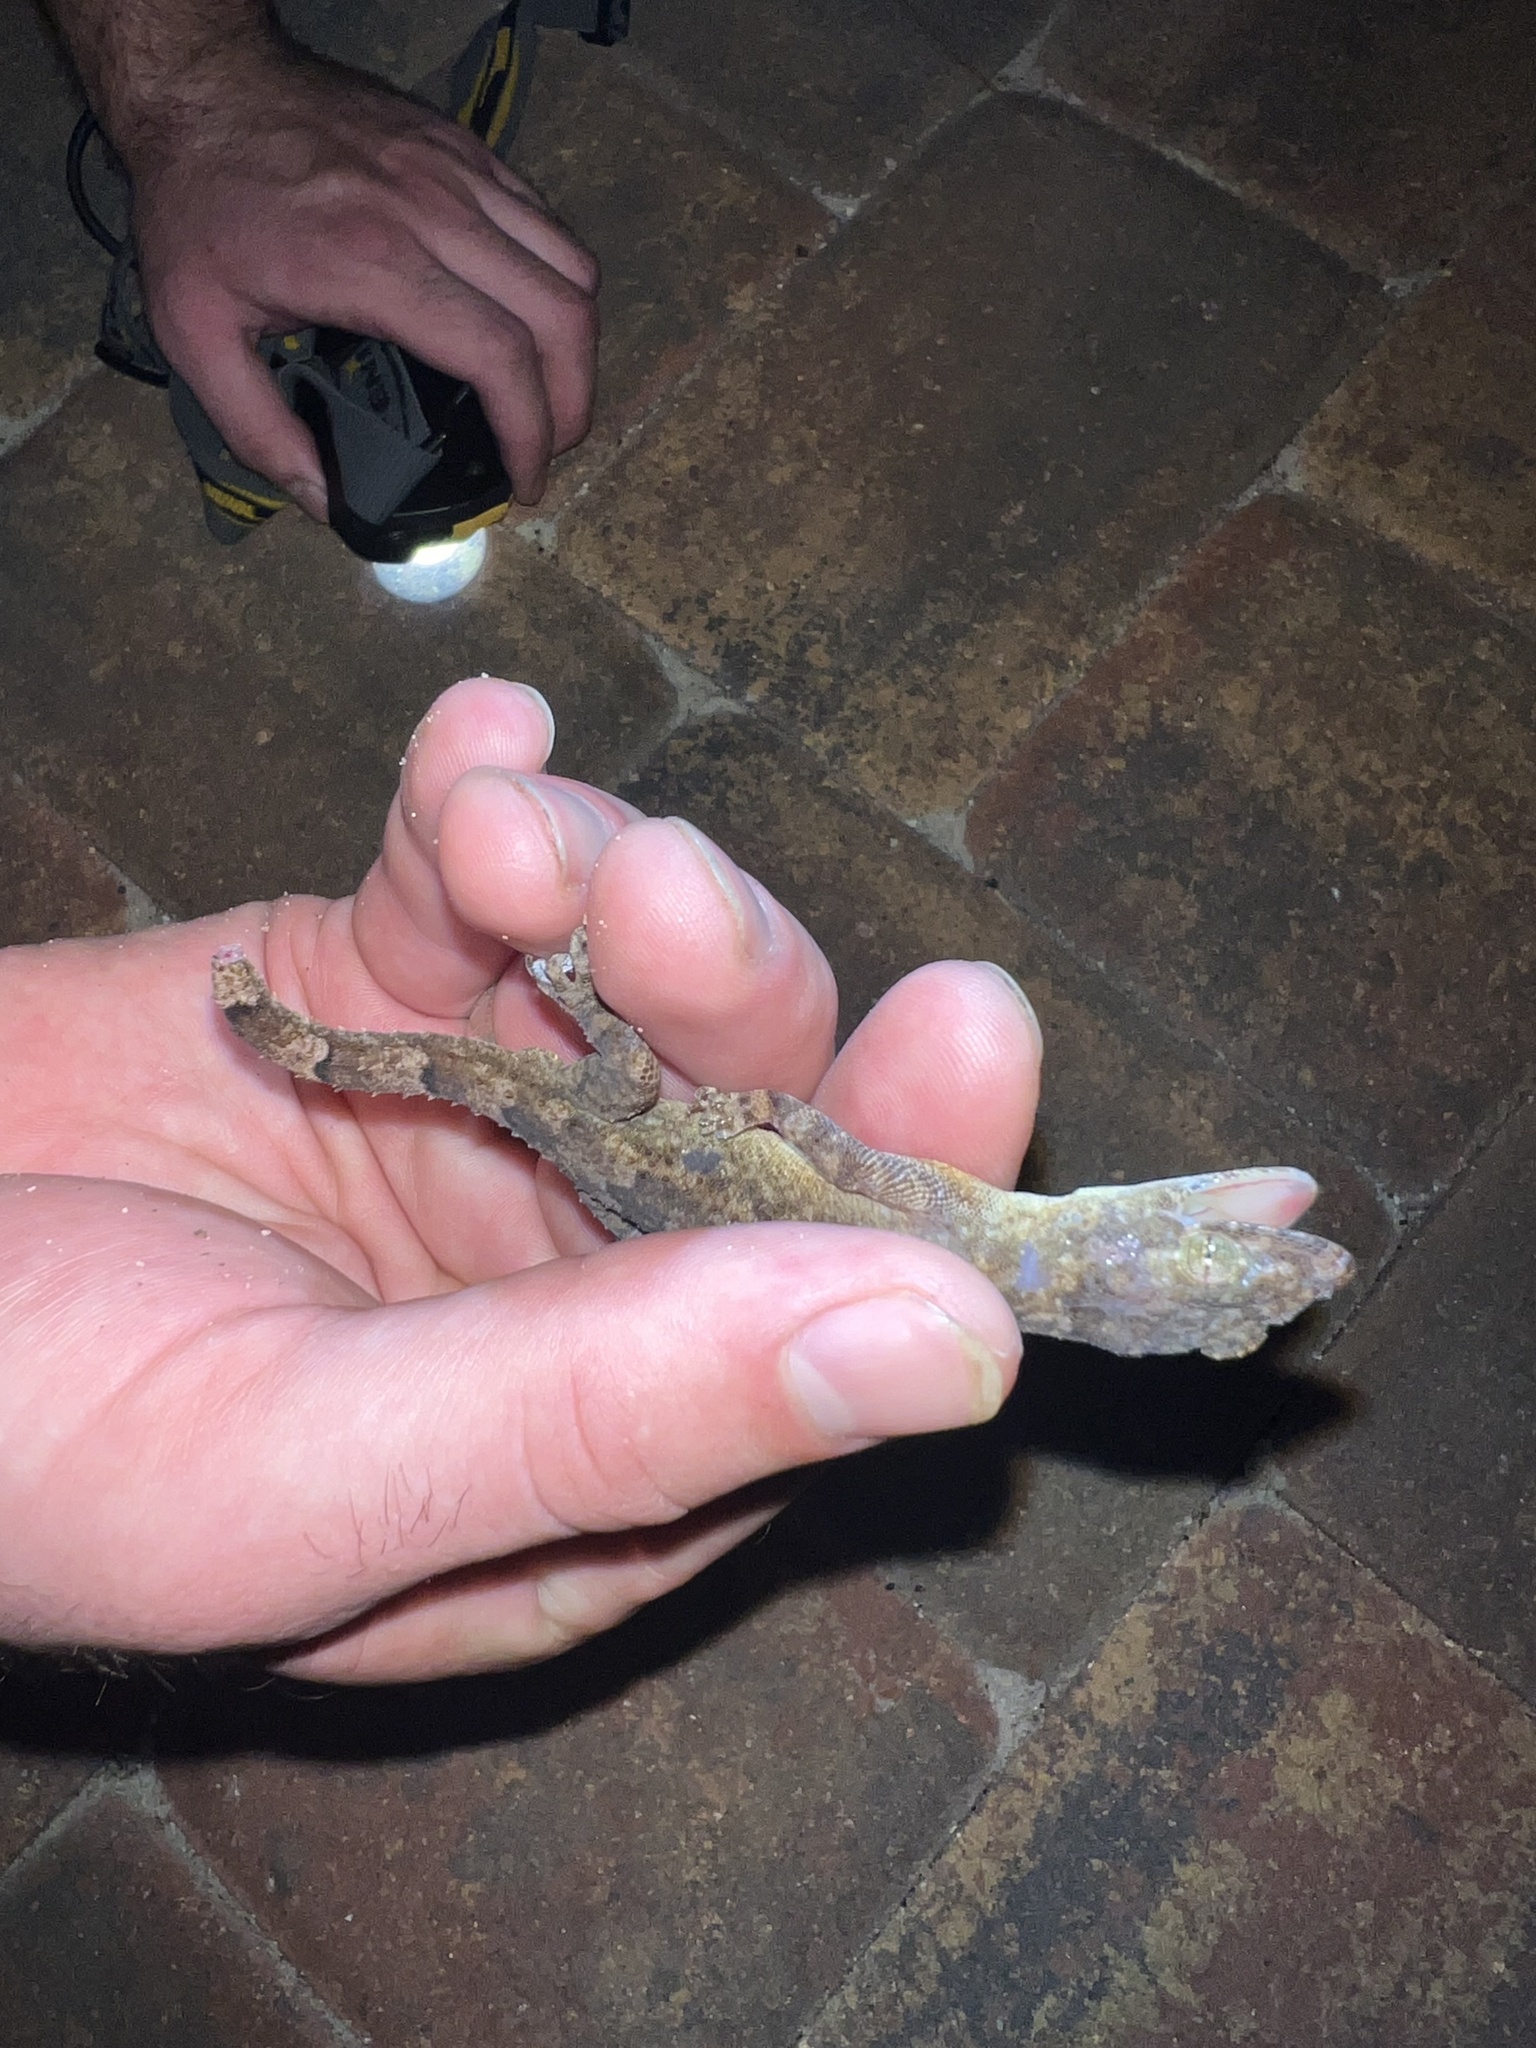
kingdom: Animalia
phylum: Chordata
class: Squamata
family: Gekkonidae
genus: Hemidactylus
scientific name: Hemidactylus mabouia
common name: House gecko
